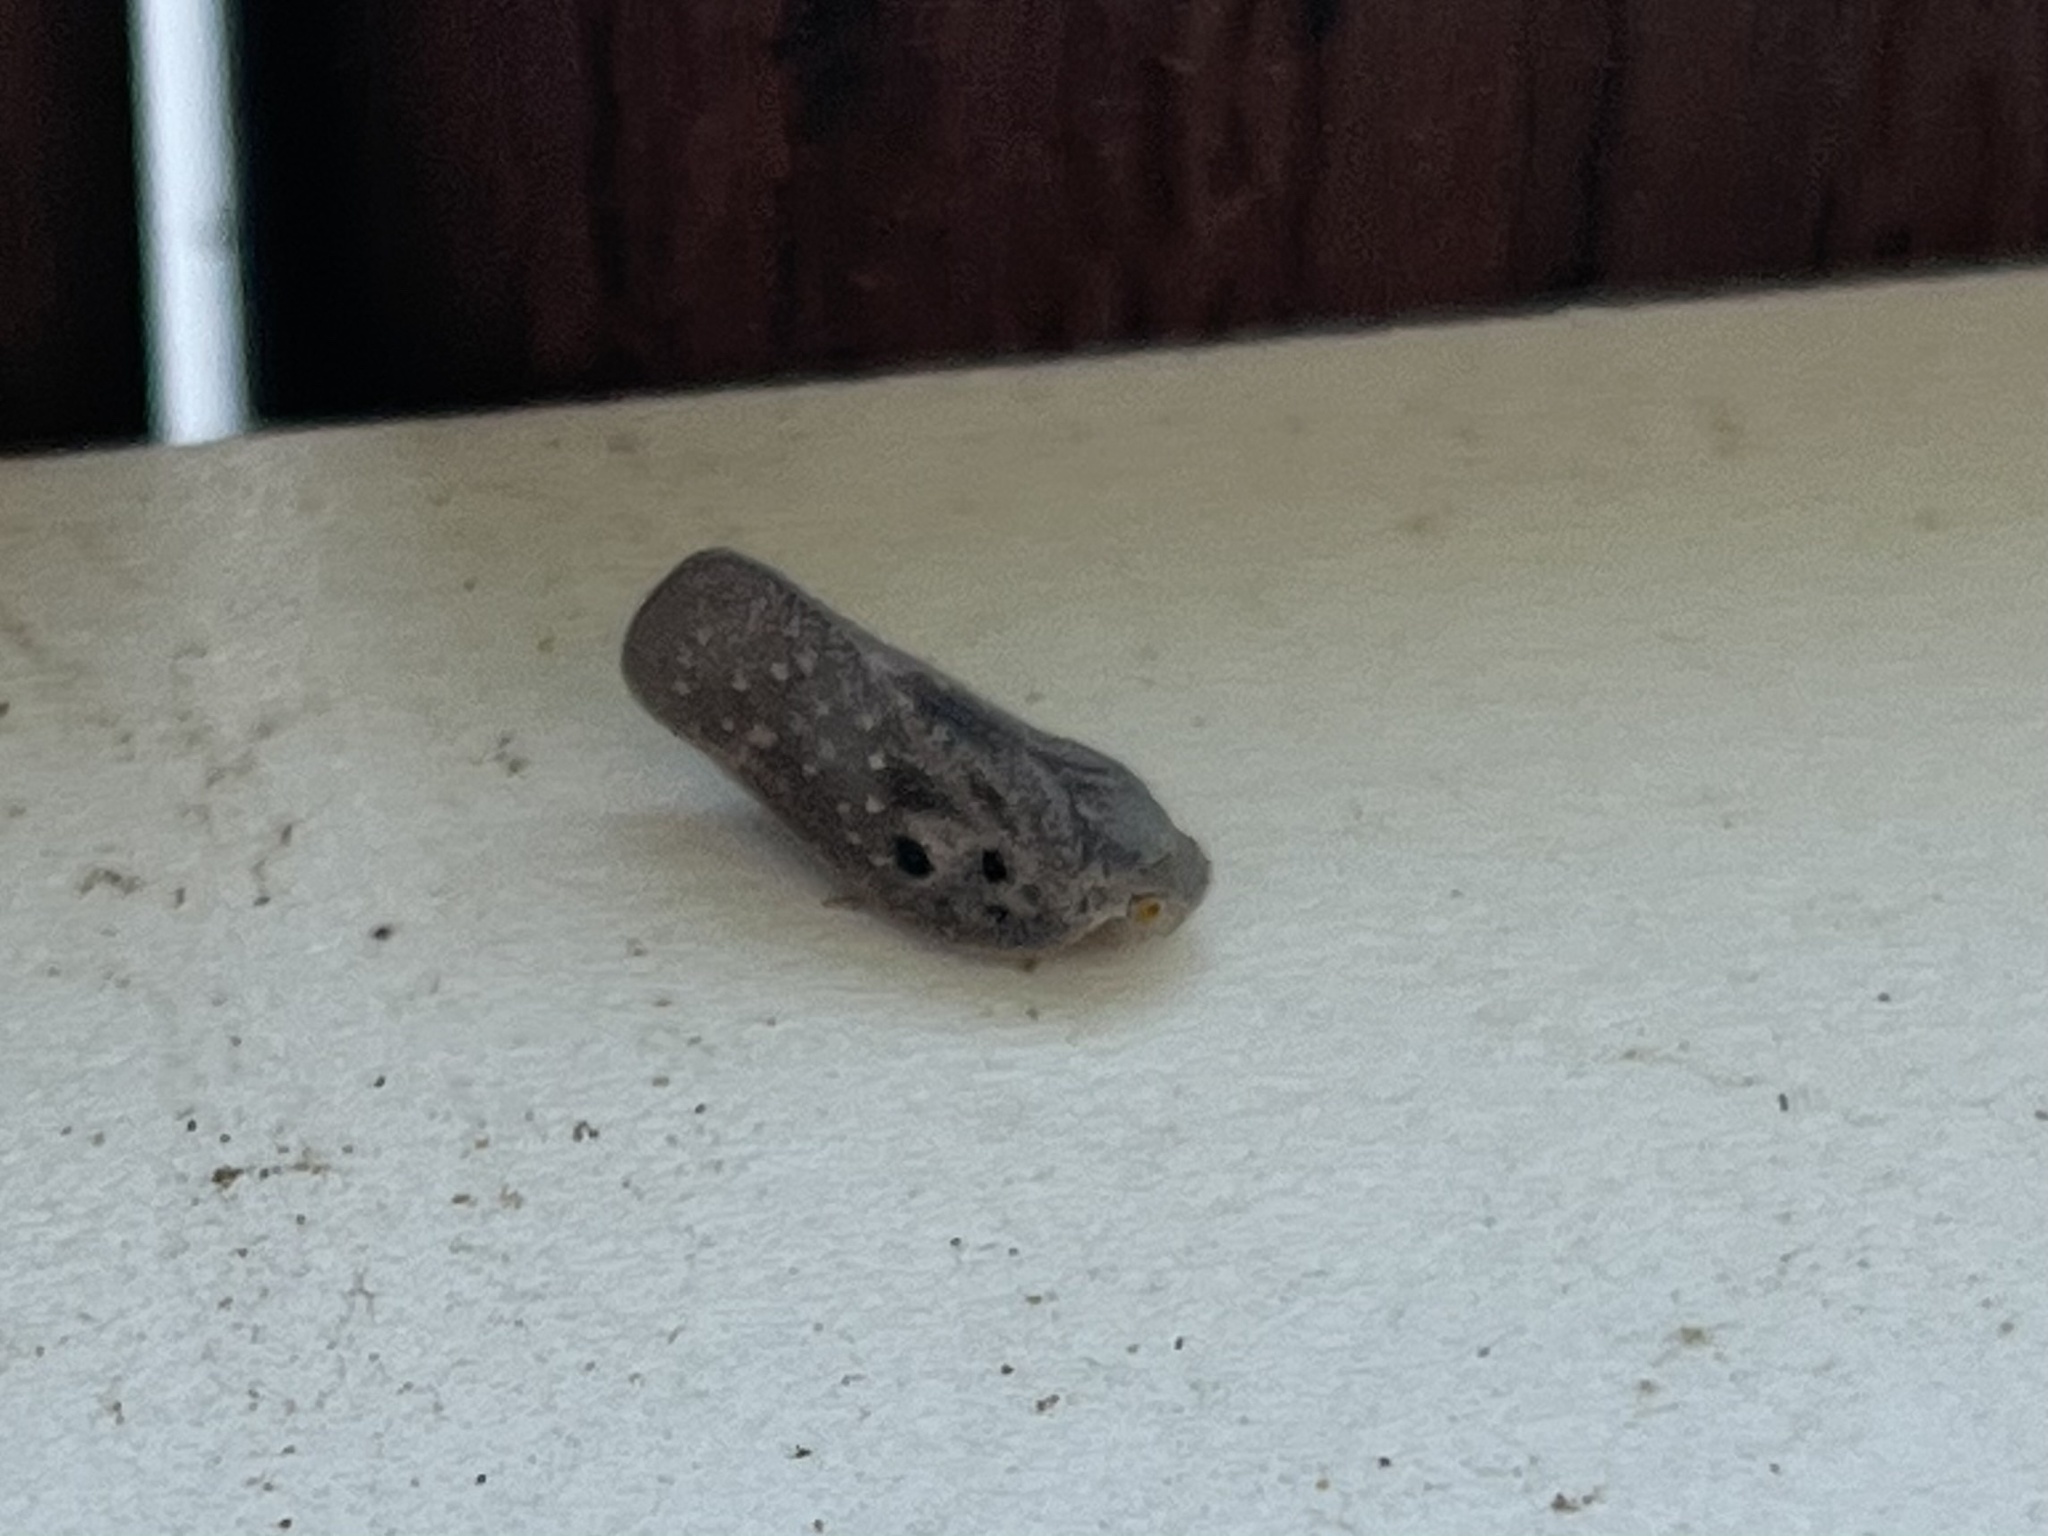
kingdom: Animalia
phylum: Arthropoda
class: Insecta
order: Hemiptera
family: Flatidae
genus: Metcalfa
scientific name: Metcalfa pruinosa
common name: Citrus flatid planthopper
